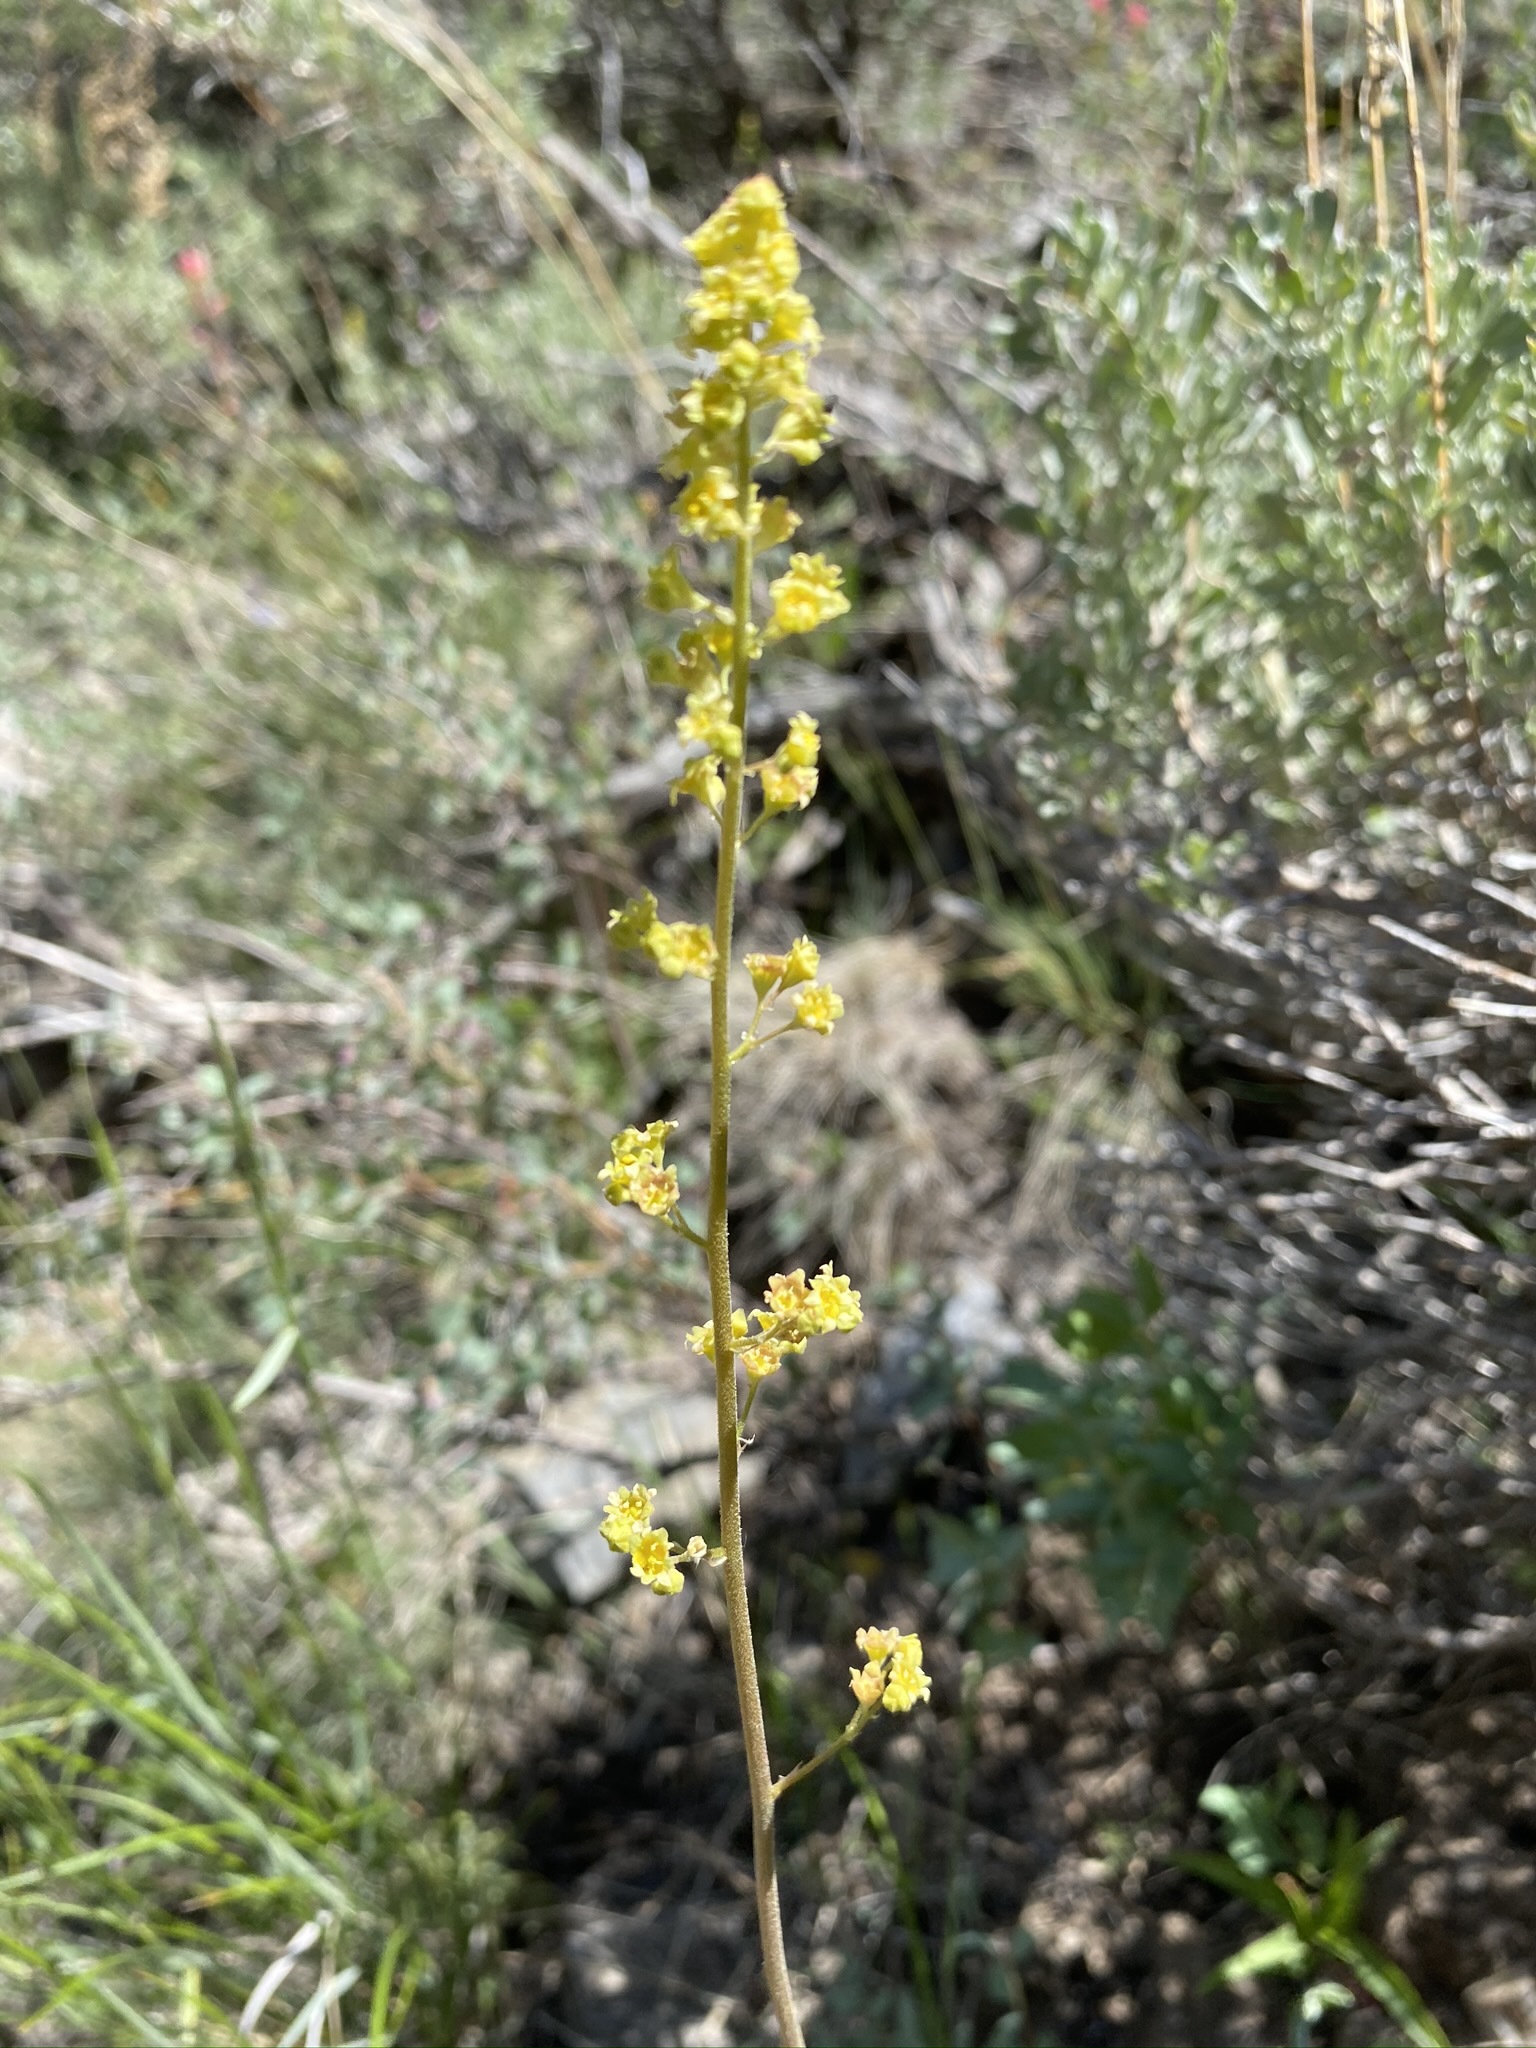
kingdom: Plantae
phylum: Tracheophyta
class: Magnoliopsida
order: Saxifragales
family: Saxifragaceae
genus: Heuchera
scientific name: Heuchera parvifolia
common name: Common alumroot
